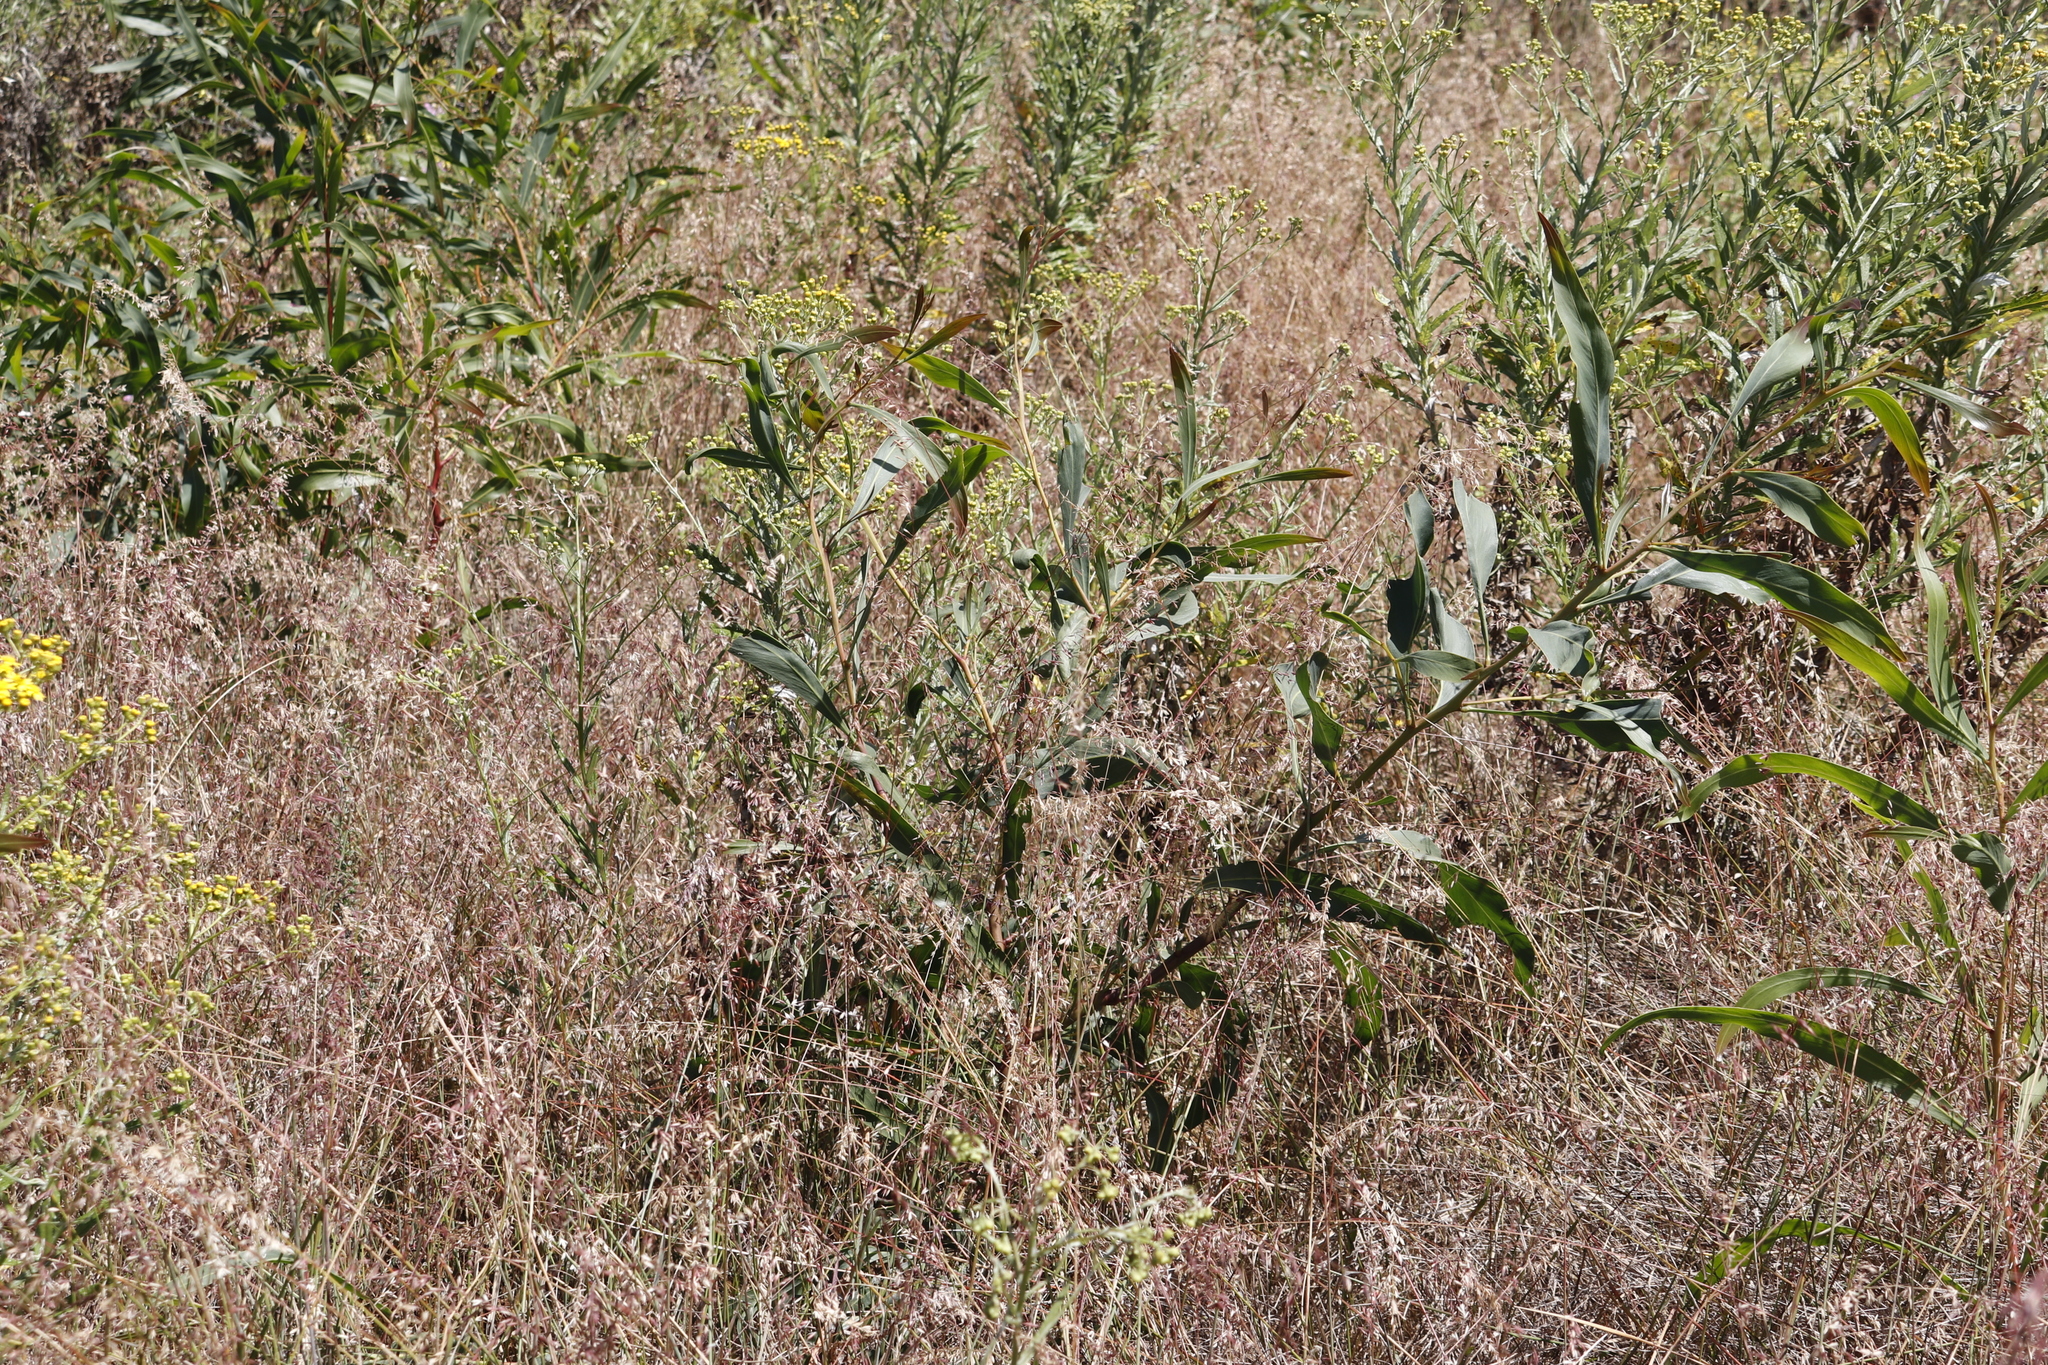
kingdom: Plantae
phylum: Tracheophyta
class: Magnoliopsida
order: Fabales
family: Fabaceae
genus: Acacia
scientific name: Acacia saligna
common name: Orange wattle
